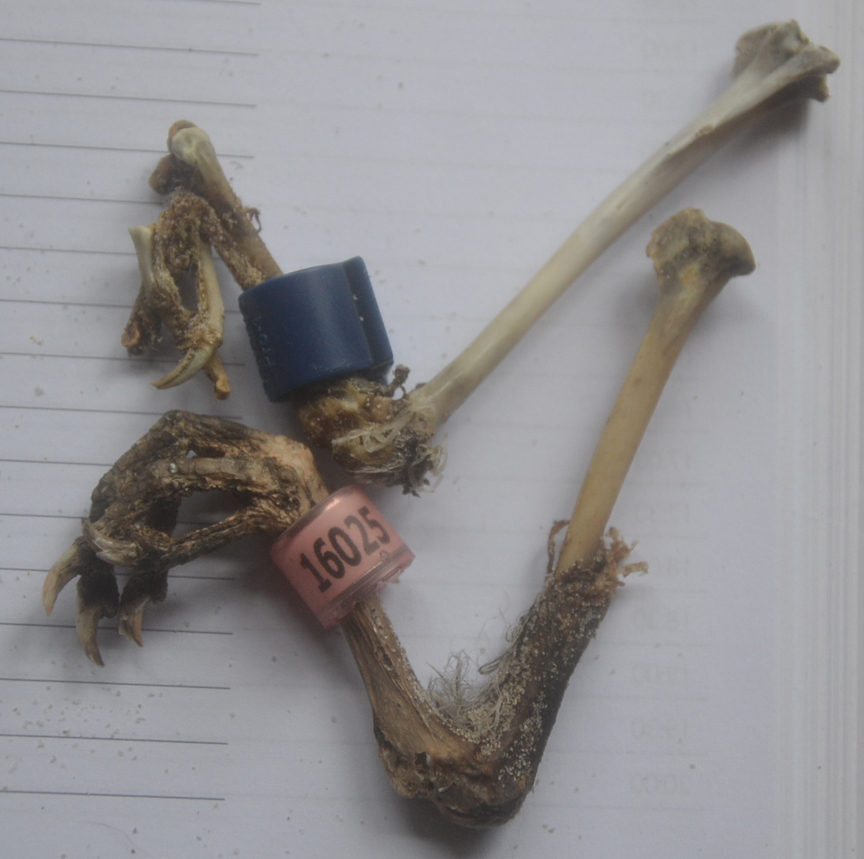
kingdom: Animalia
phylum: Chordata
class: Aves
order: Columbiformes
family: Columbidae
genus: Columba
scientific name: Columba livia
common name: Rock pigeon
